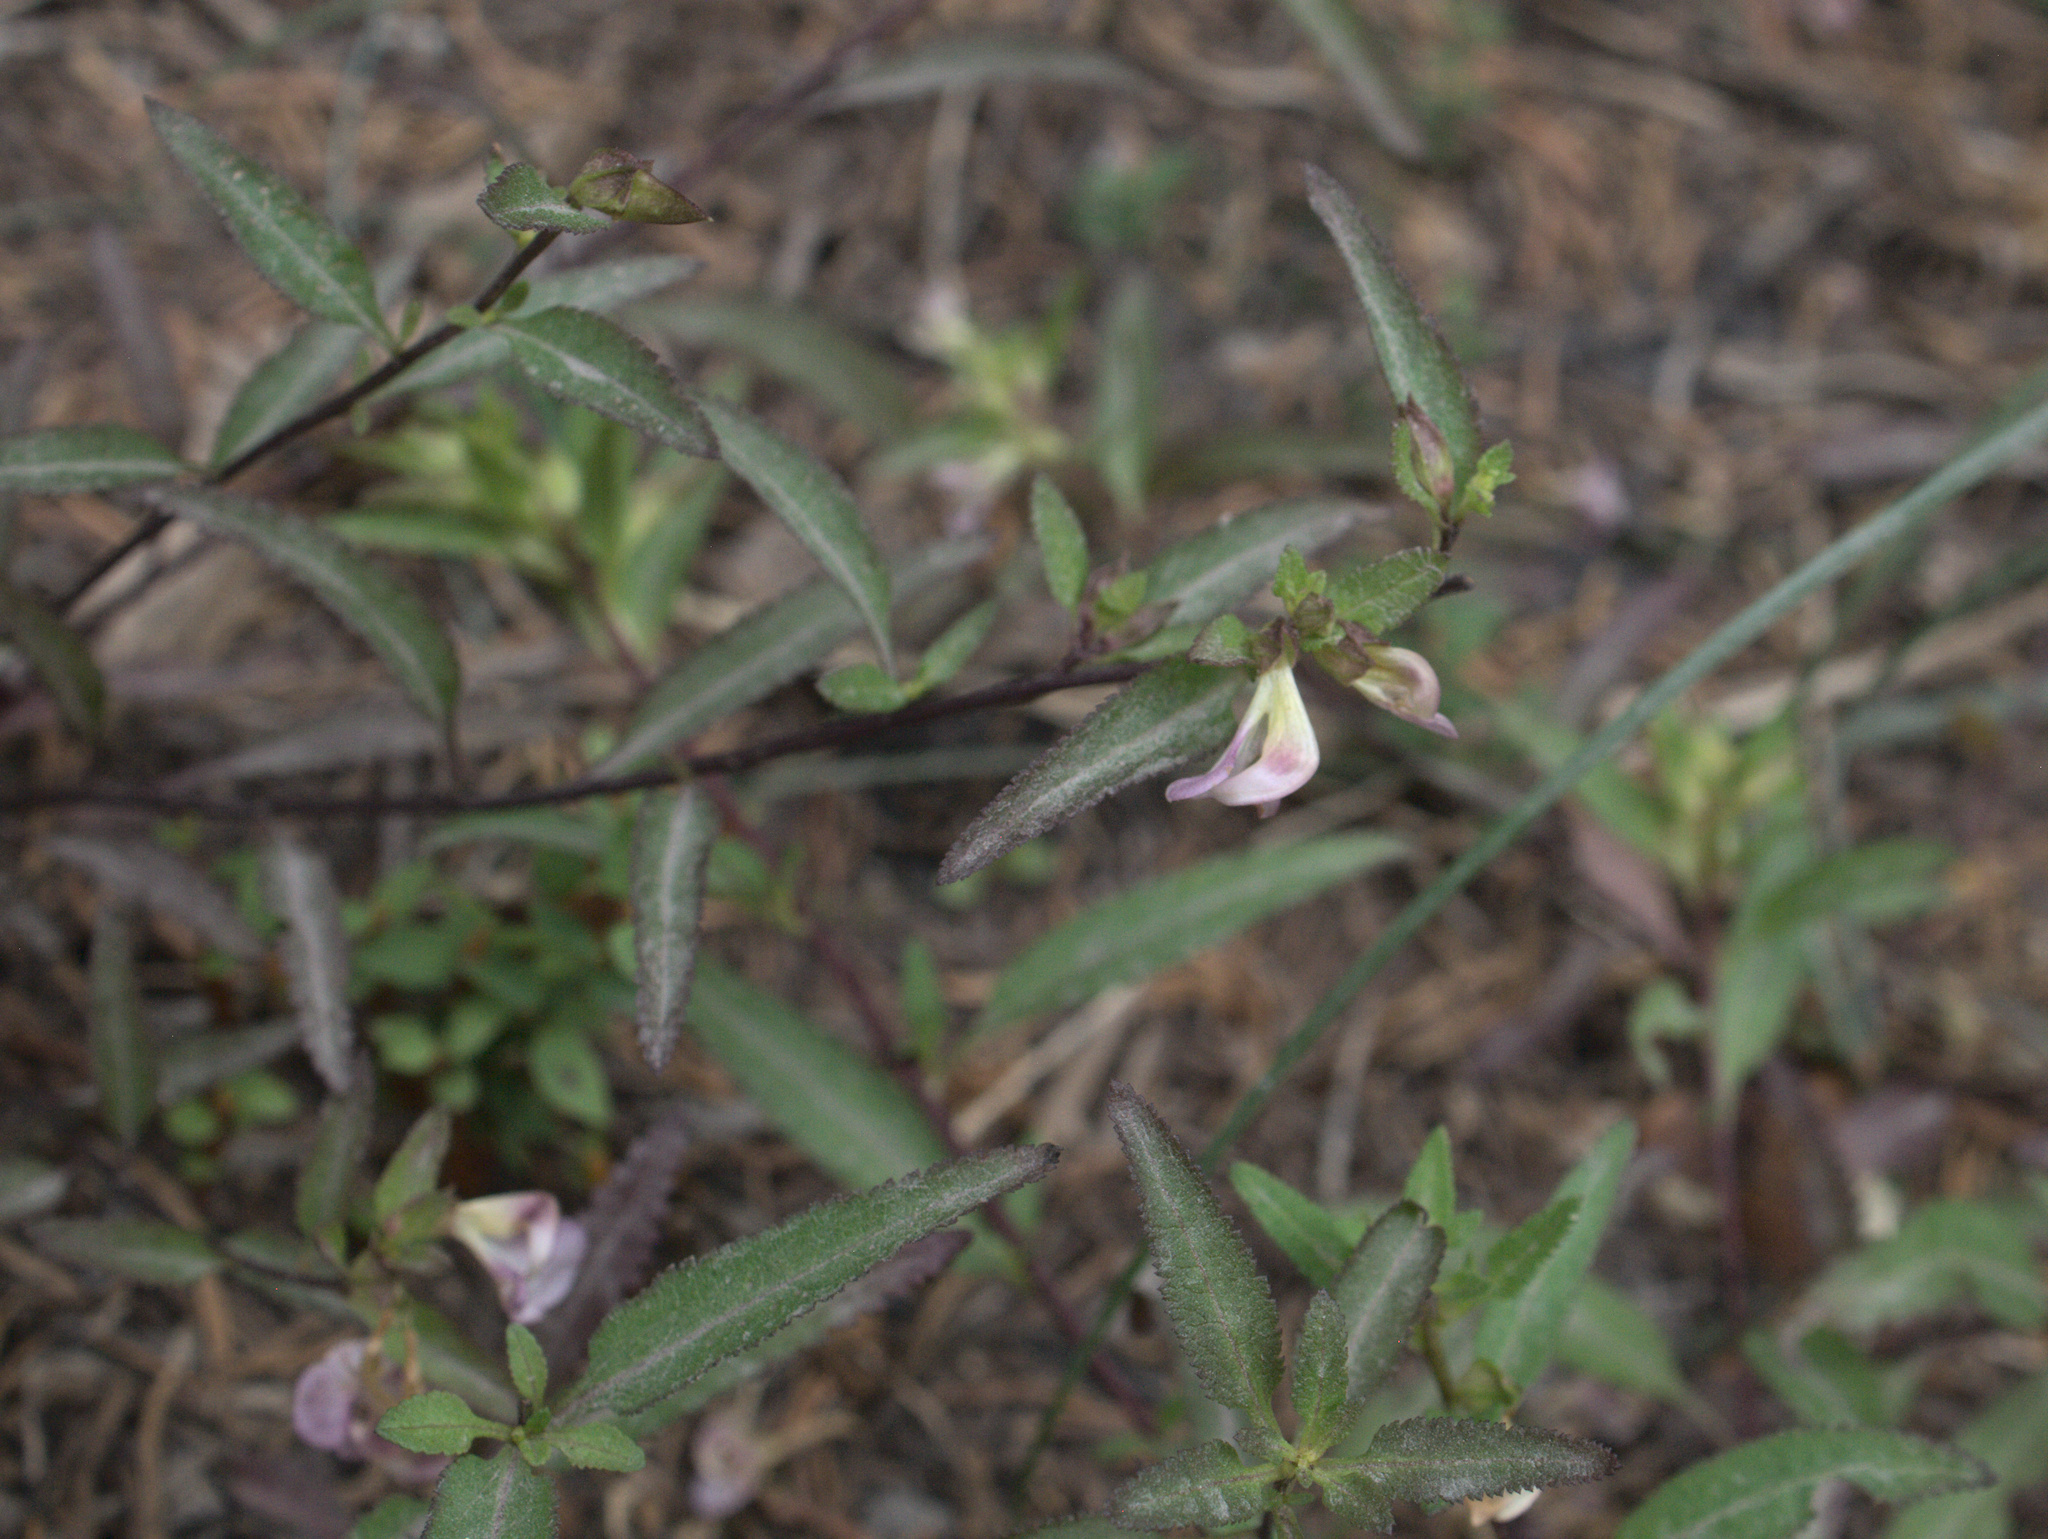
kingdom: Plantae
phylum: Tracheophyta
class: Magnoliopsida
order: Lamiales
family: Orobanchaceae
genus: Pedicularis
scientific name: Pedicularis racemosa
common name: Leafy lousewort
